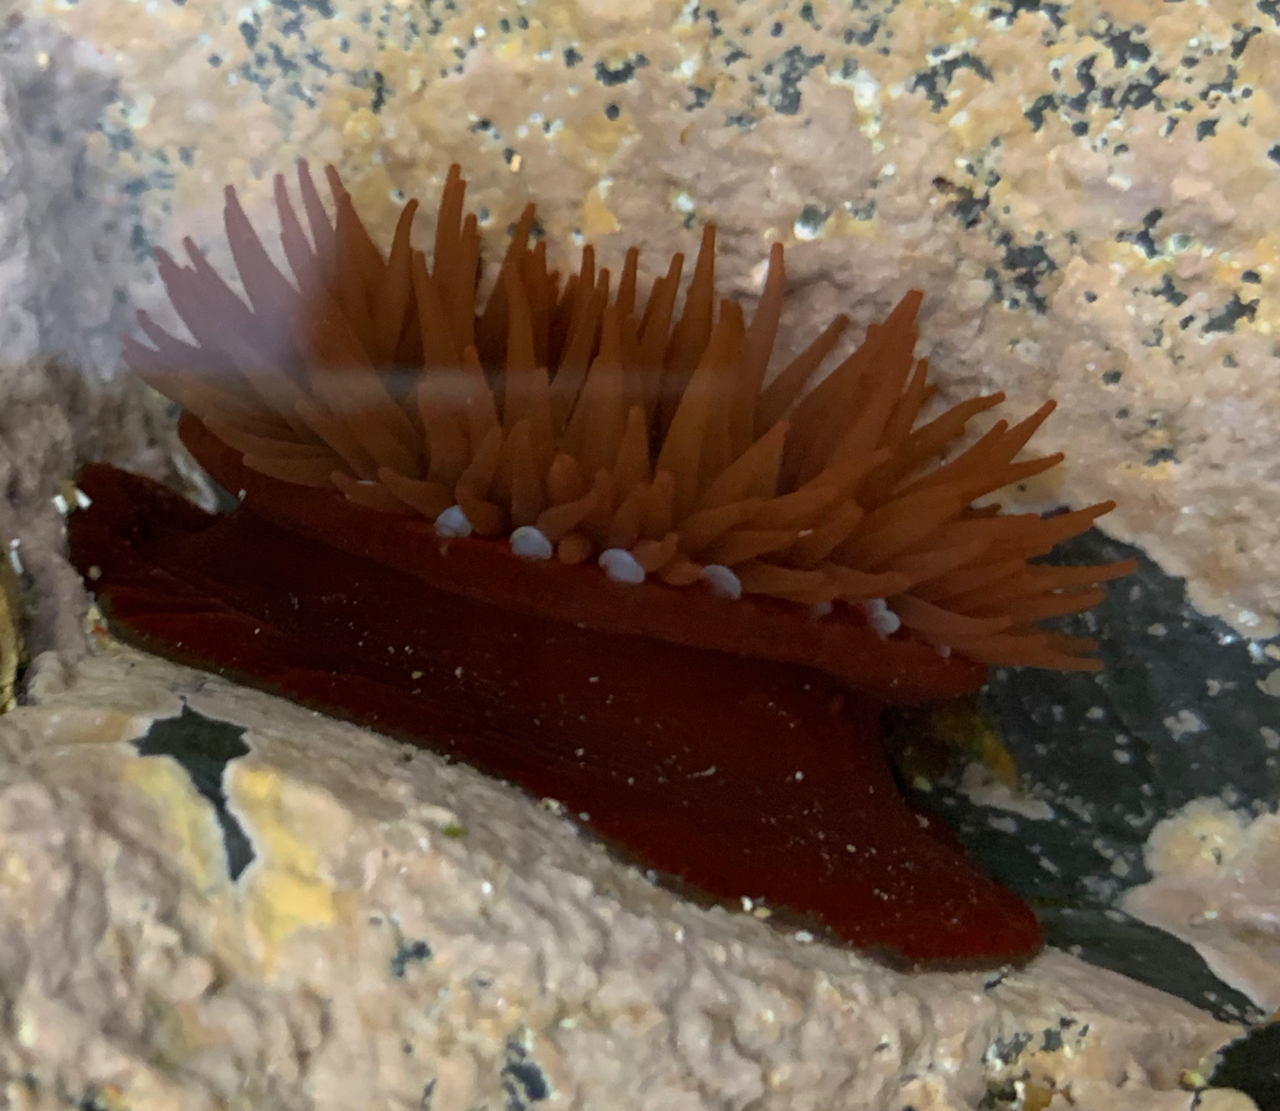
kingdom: Animalia
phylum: Cnidaria
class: Anthozoa
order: Actiniaria
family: Actiniidae
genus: Actinia
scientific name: Actinia equina
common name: Beadlet anemone
